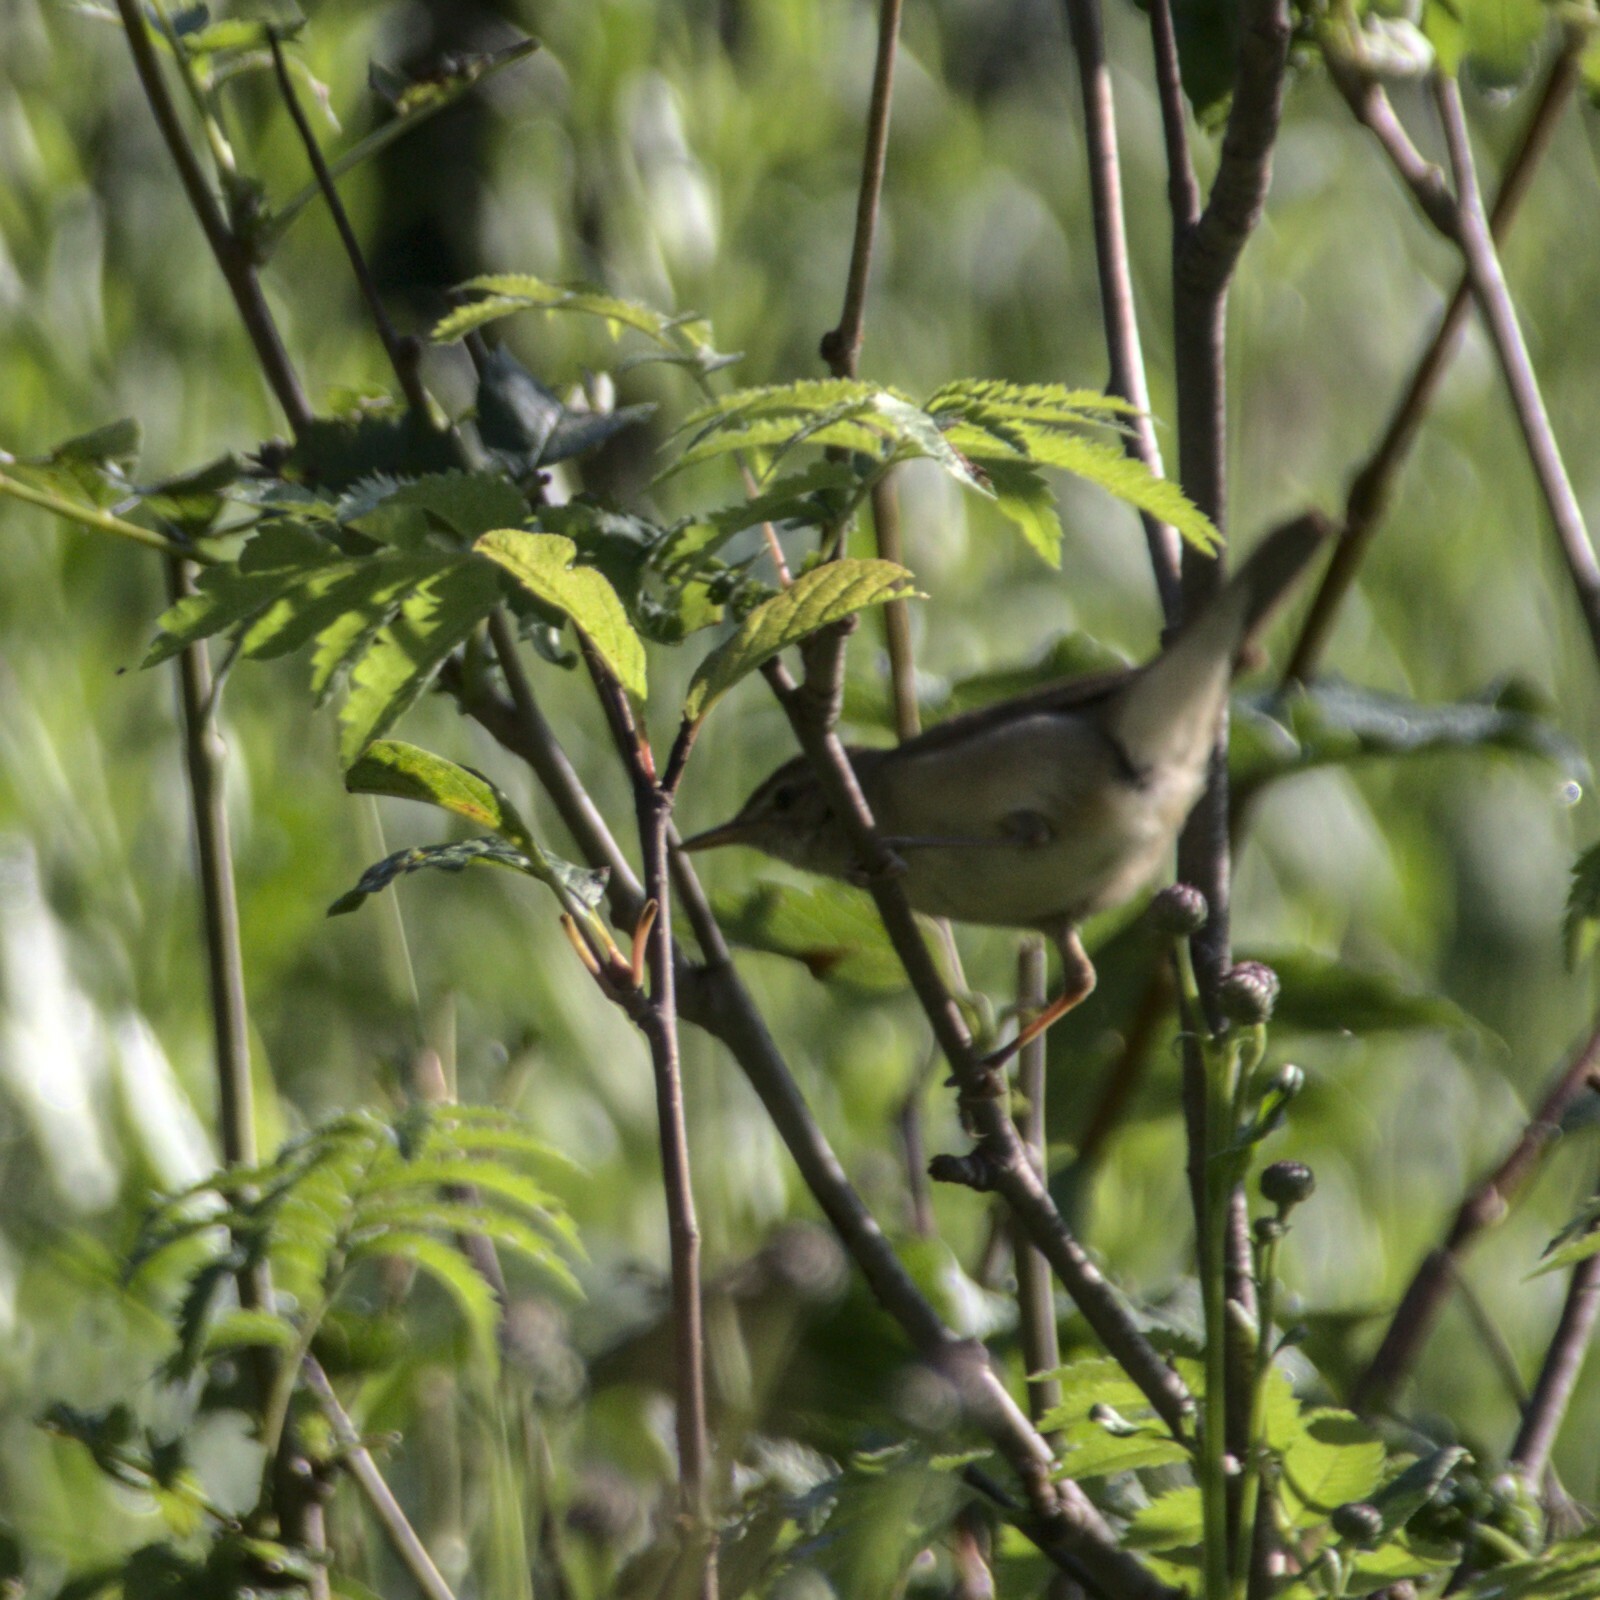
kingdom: Animalia
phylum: Chordata
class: Aves
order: Passeriformes
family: Acrocephalidae
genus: Acrocephalus
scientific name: Acrocephalus dumetorum
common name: Blyth's reed warbler
